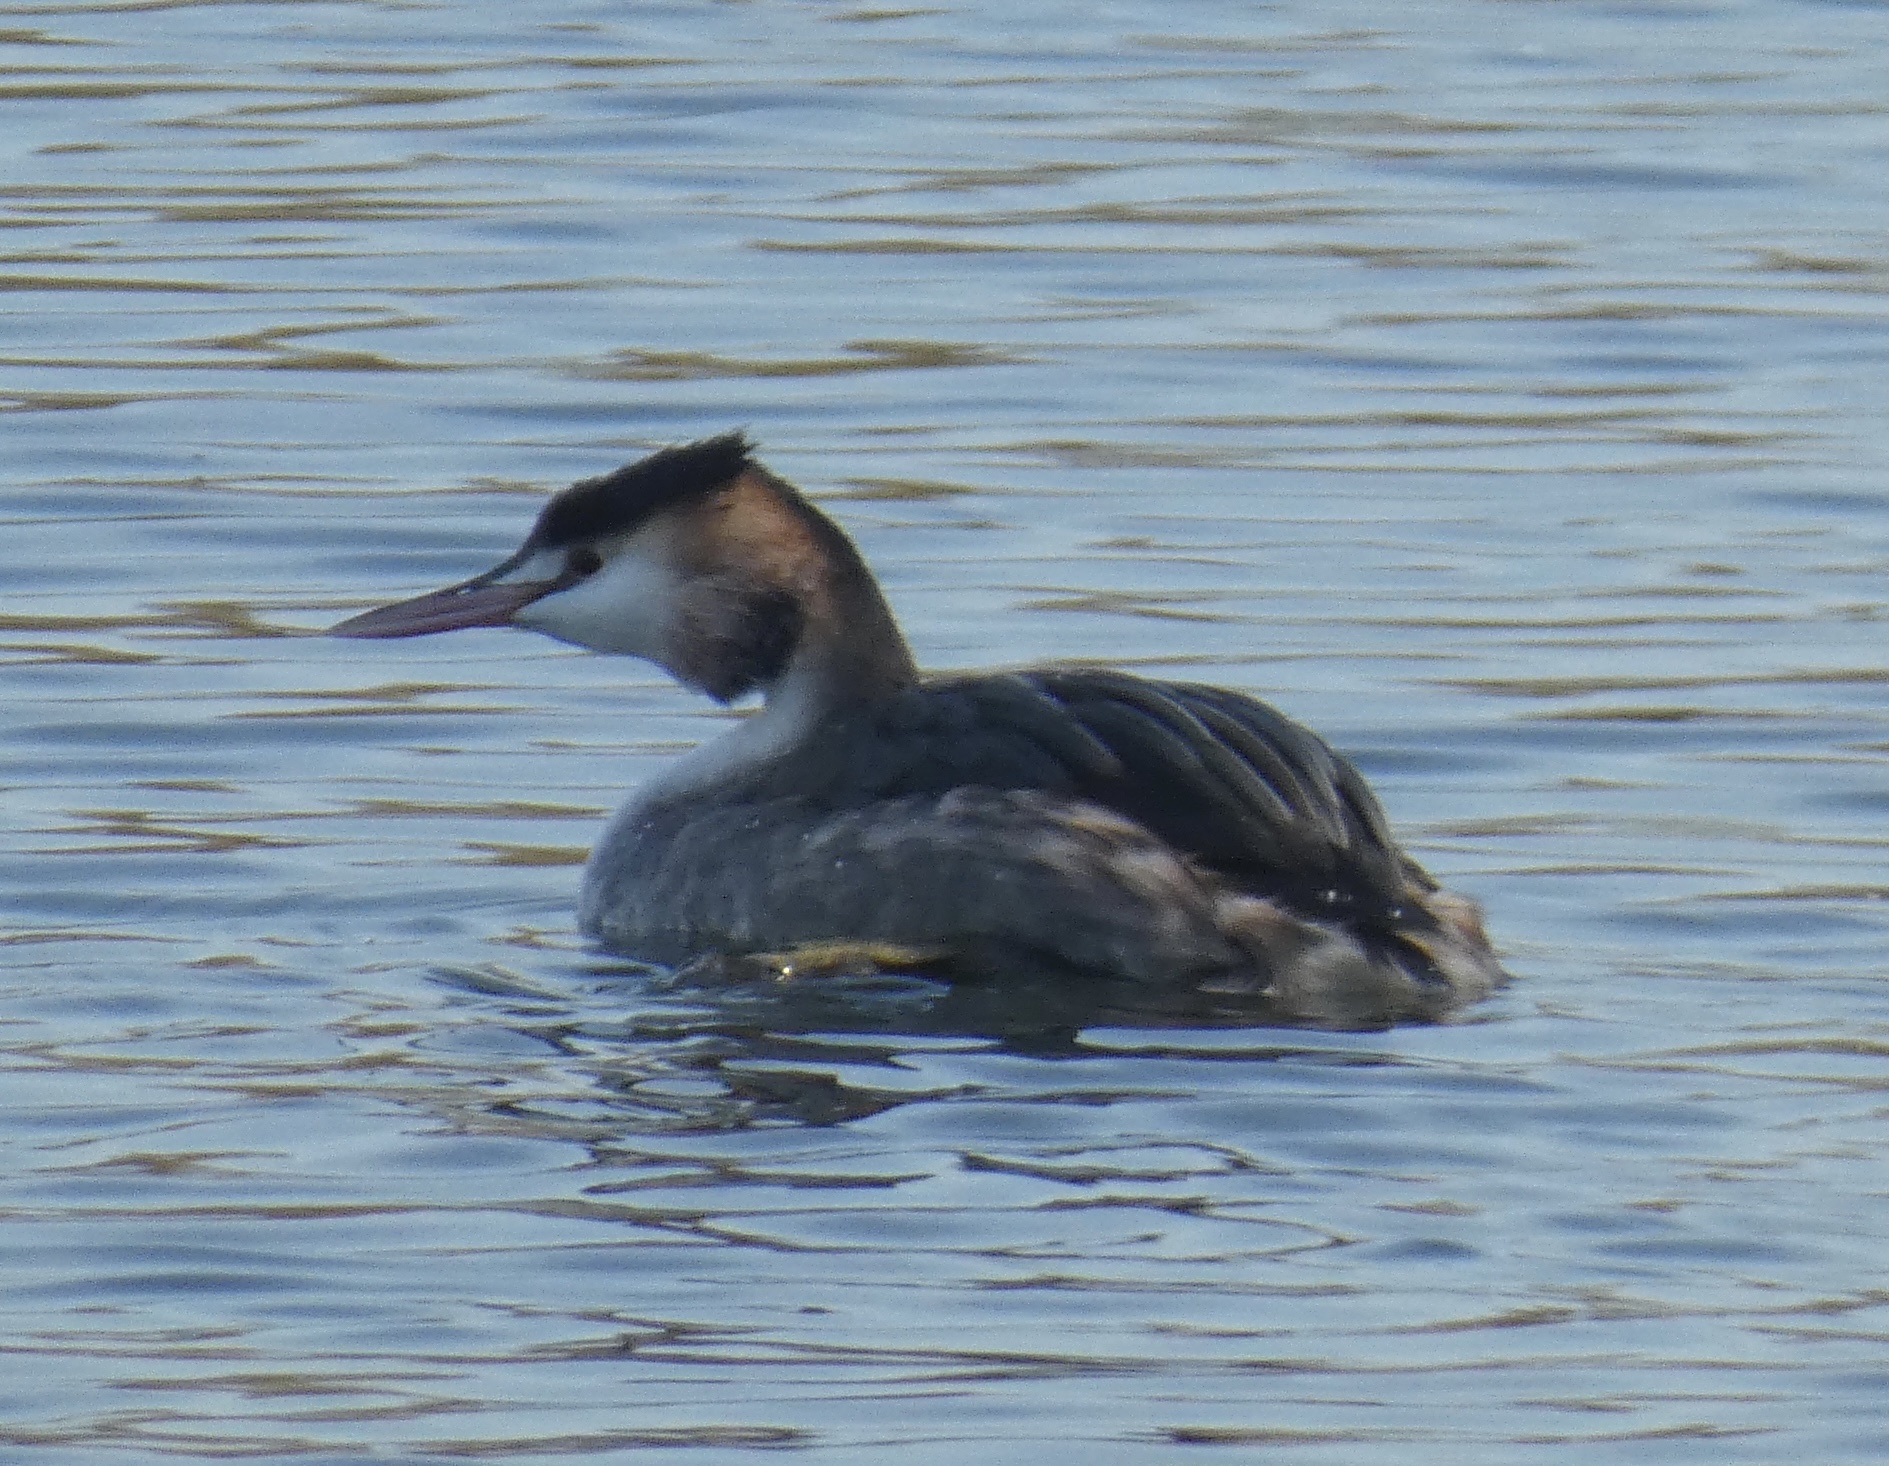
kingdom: Animalia
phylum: Chordata
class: Aves
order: Podicipediformes
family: Podicipedidae
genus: Podiceps
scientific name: Podiceps cristatus
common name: Great crested grebe
